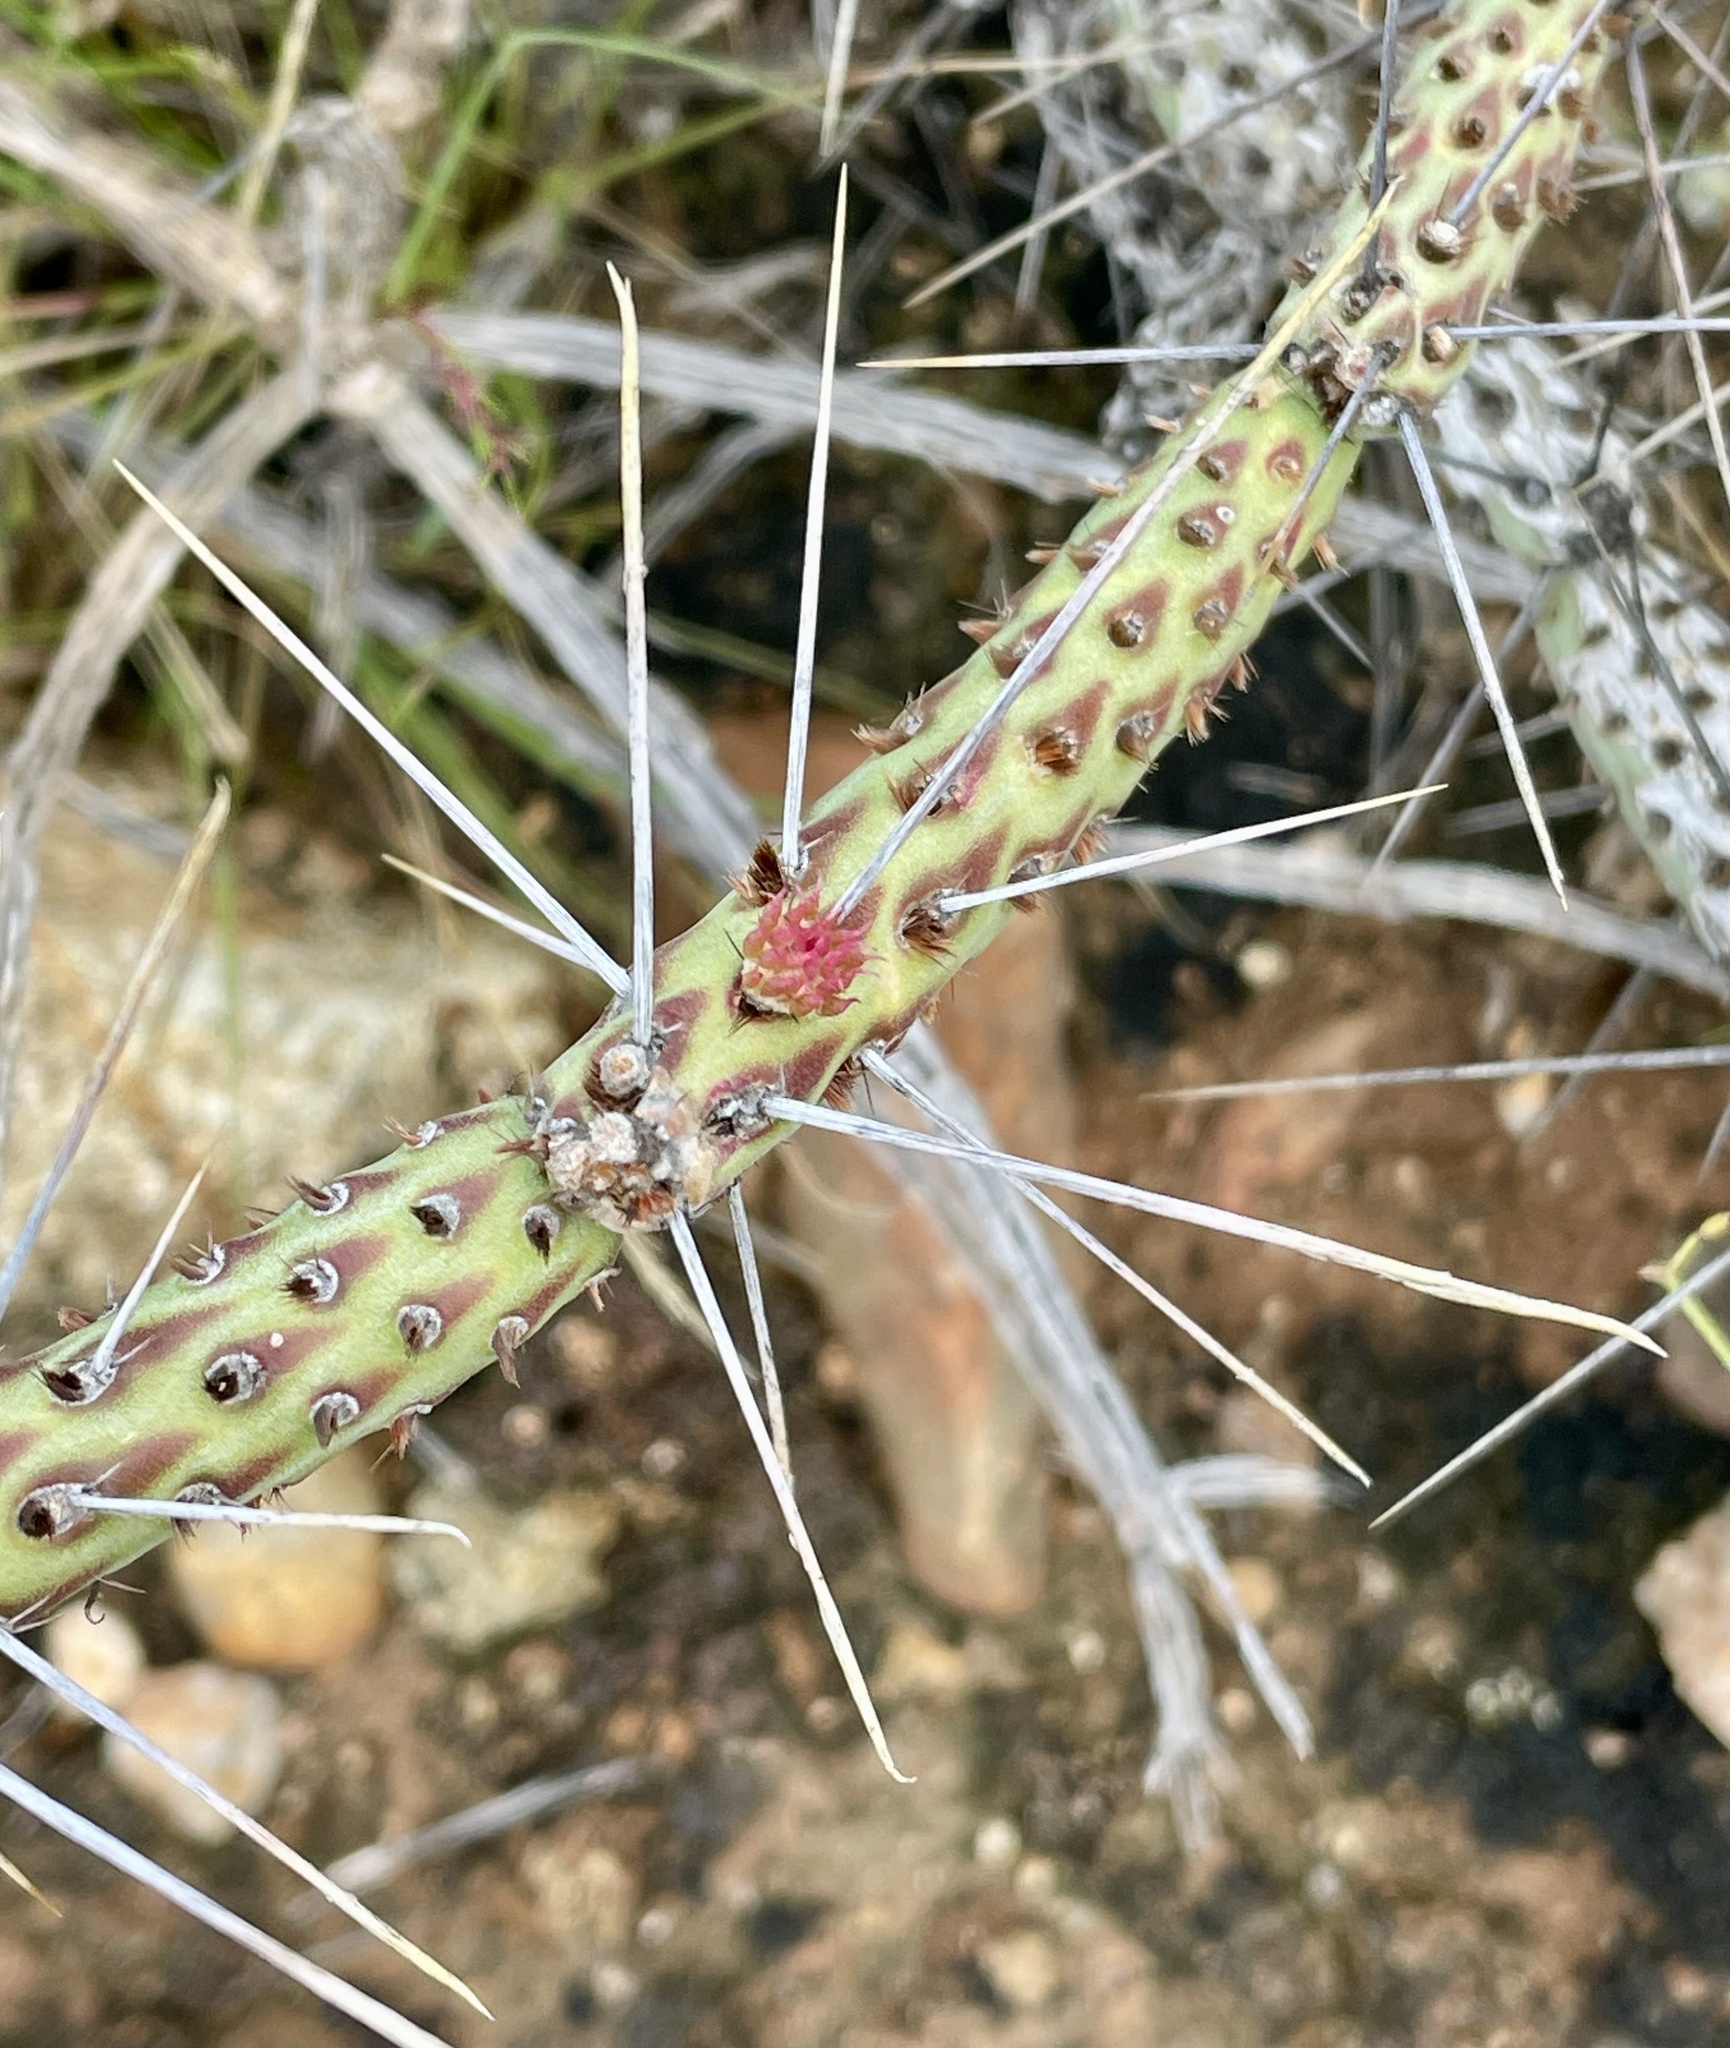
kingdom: Plantae
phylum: Tracheophyta
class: Magnoliopsida
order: Caryophyllales
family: Cactaceae
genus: Cylindropuntia
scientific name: Cylindropuntia tesajo
